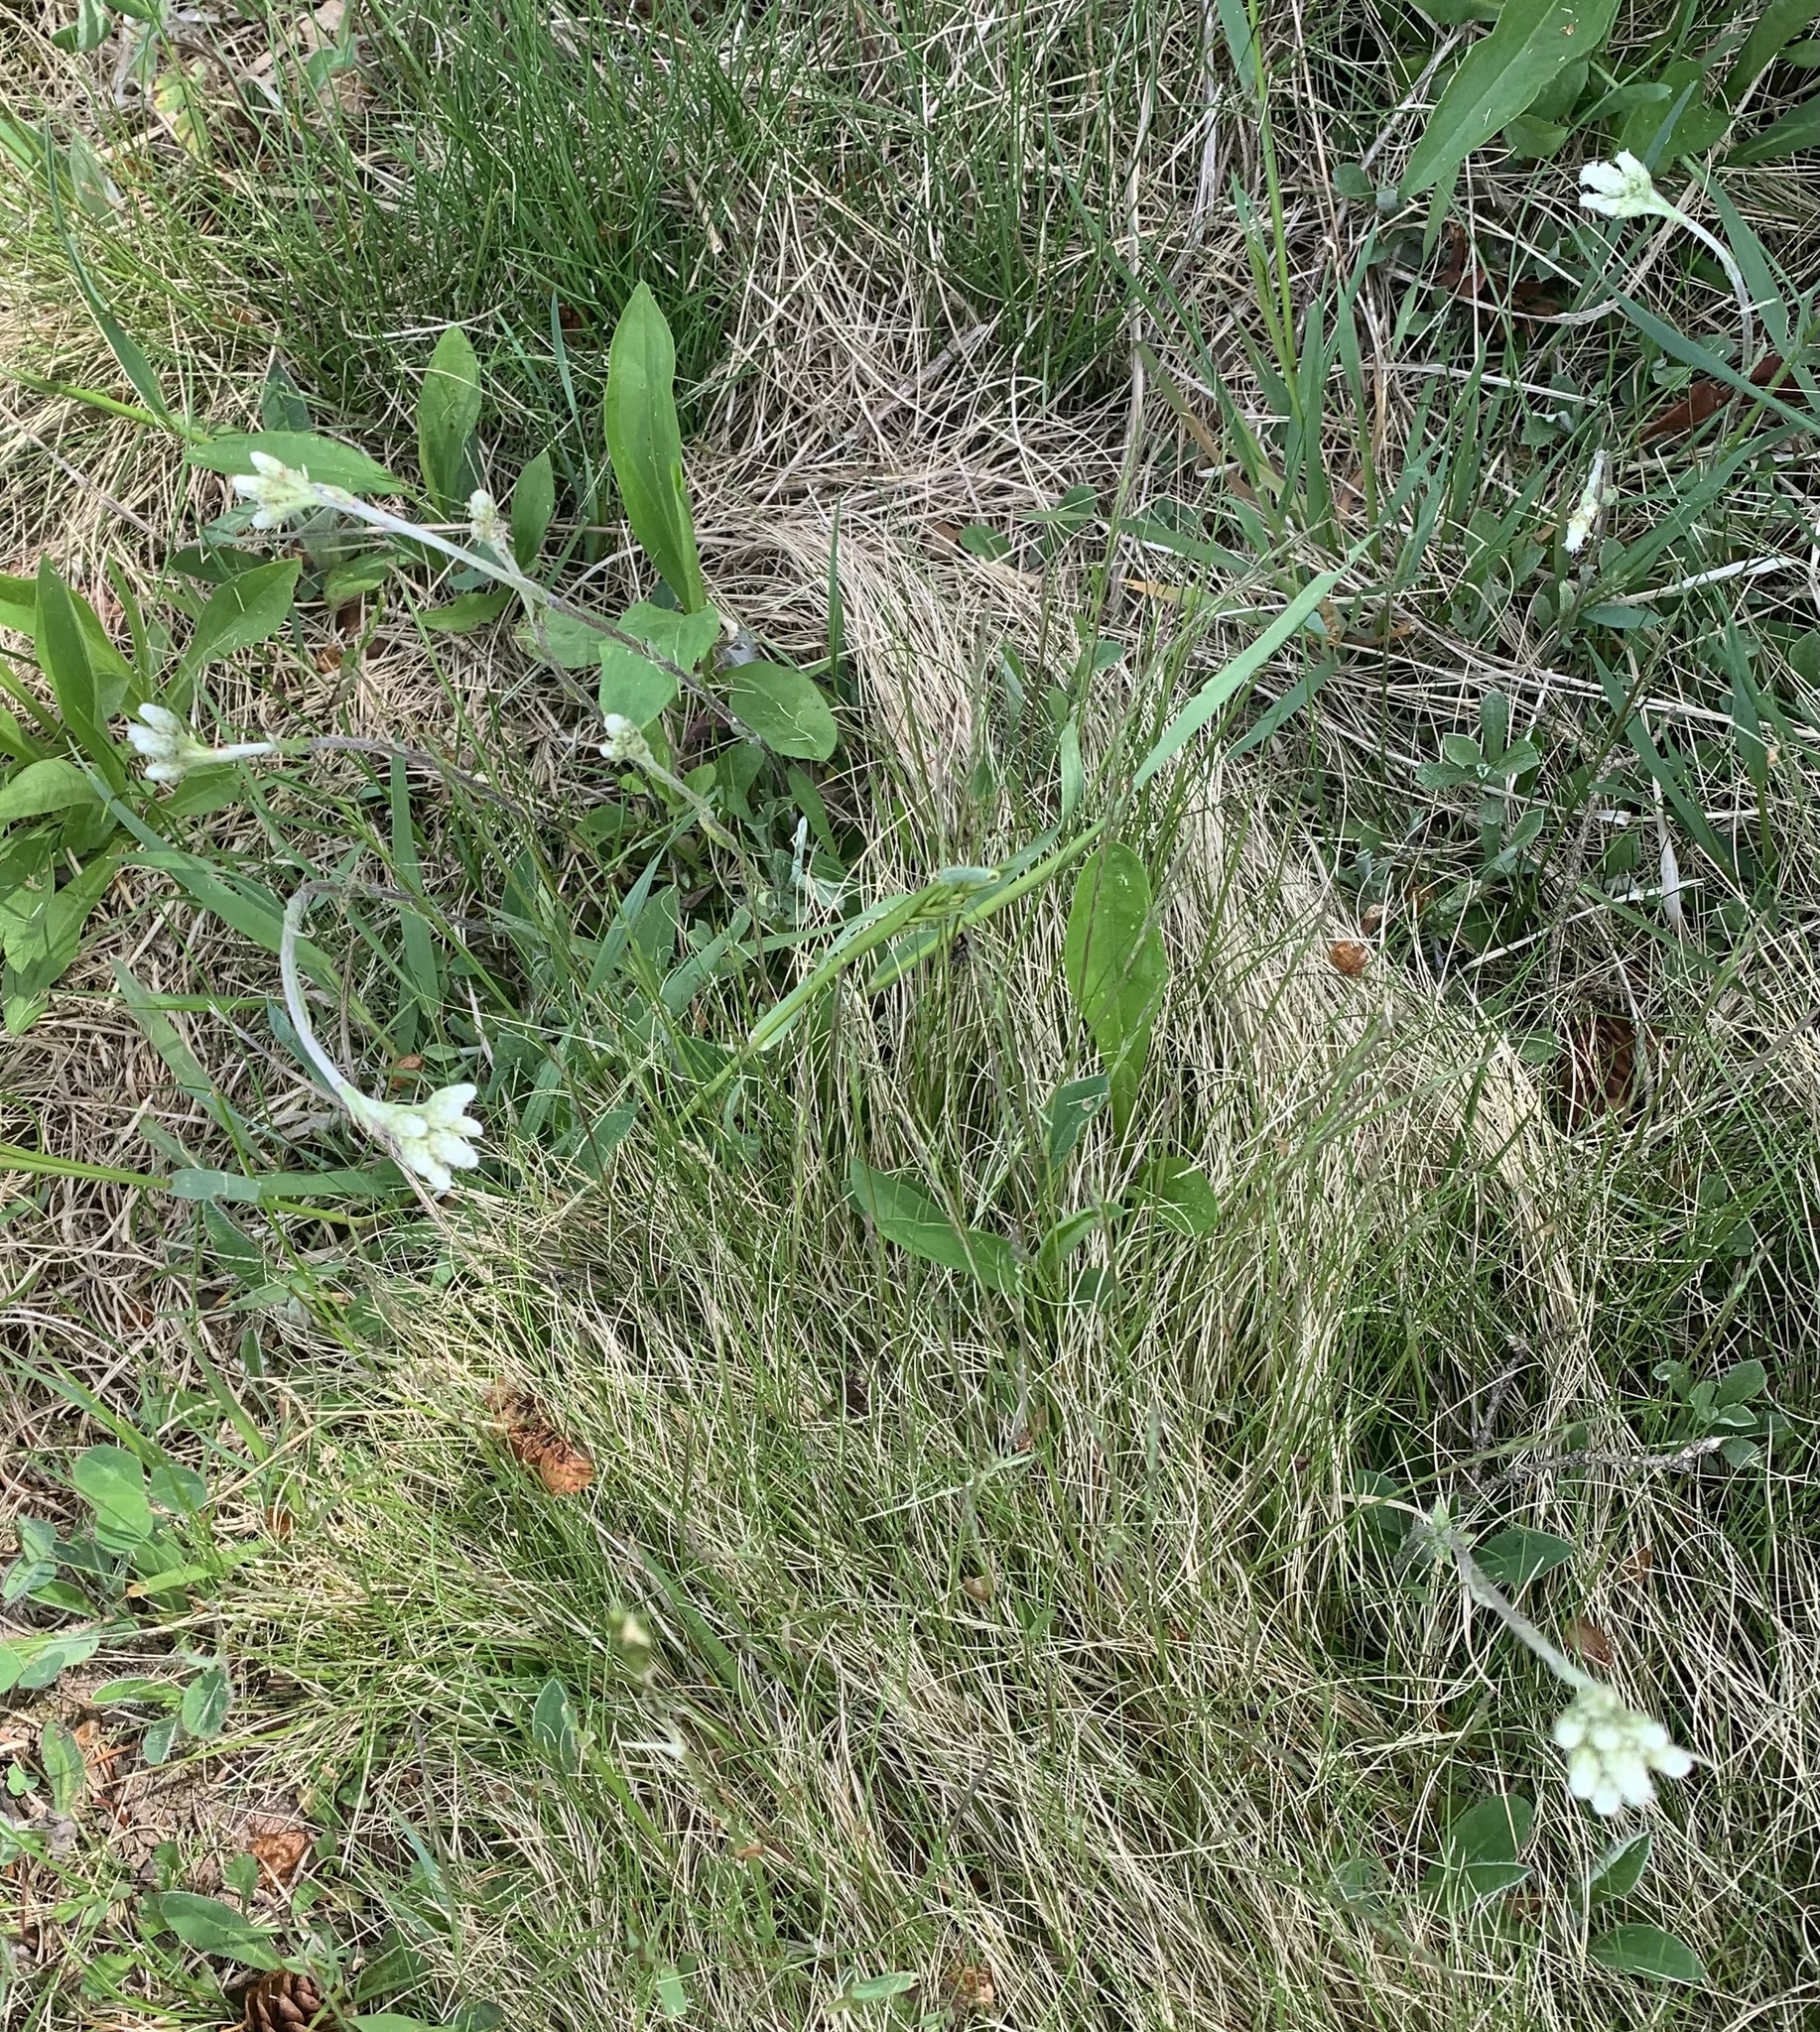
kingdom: Plantae
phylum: Tracheophyta
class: Magnoliopsida
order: Asterales
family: Asteraceae
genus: Antennaria
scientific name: Antennaria howellii
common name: Howell's pussytoes
